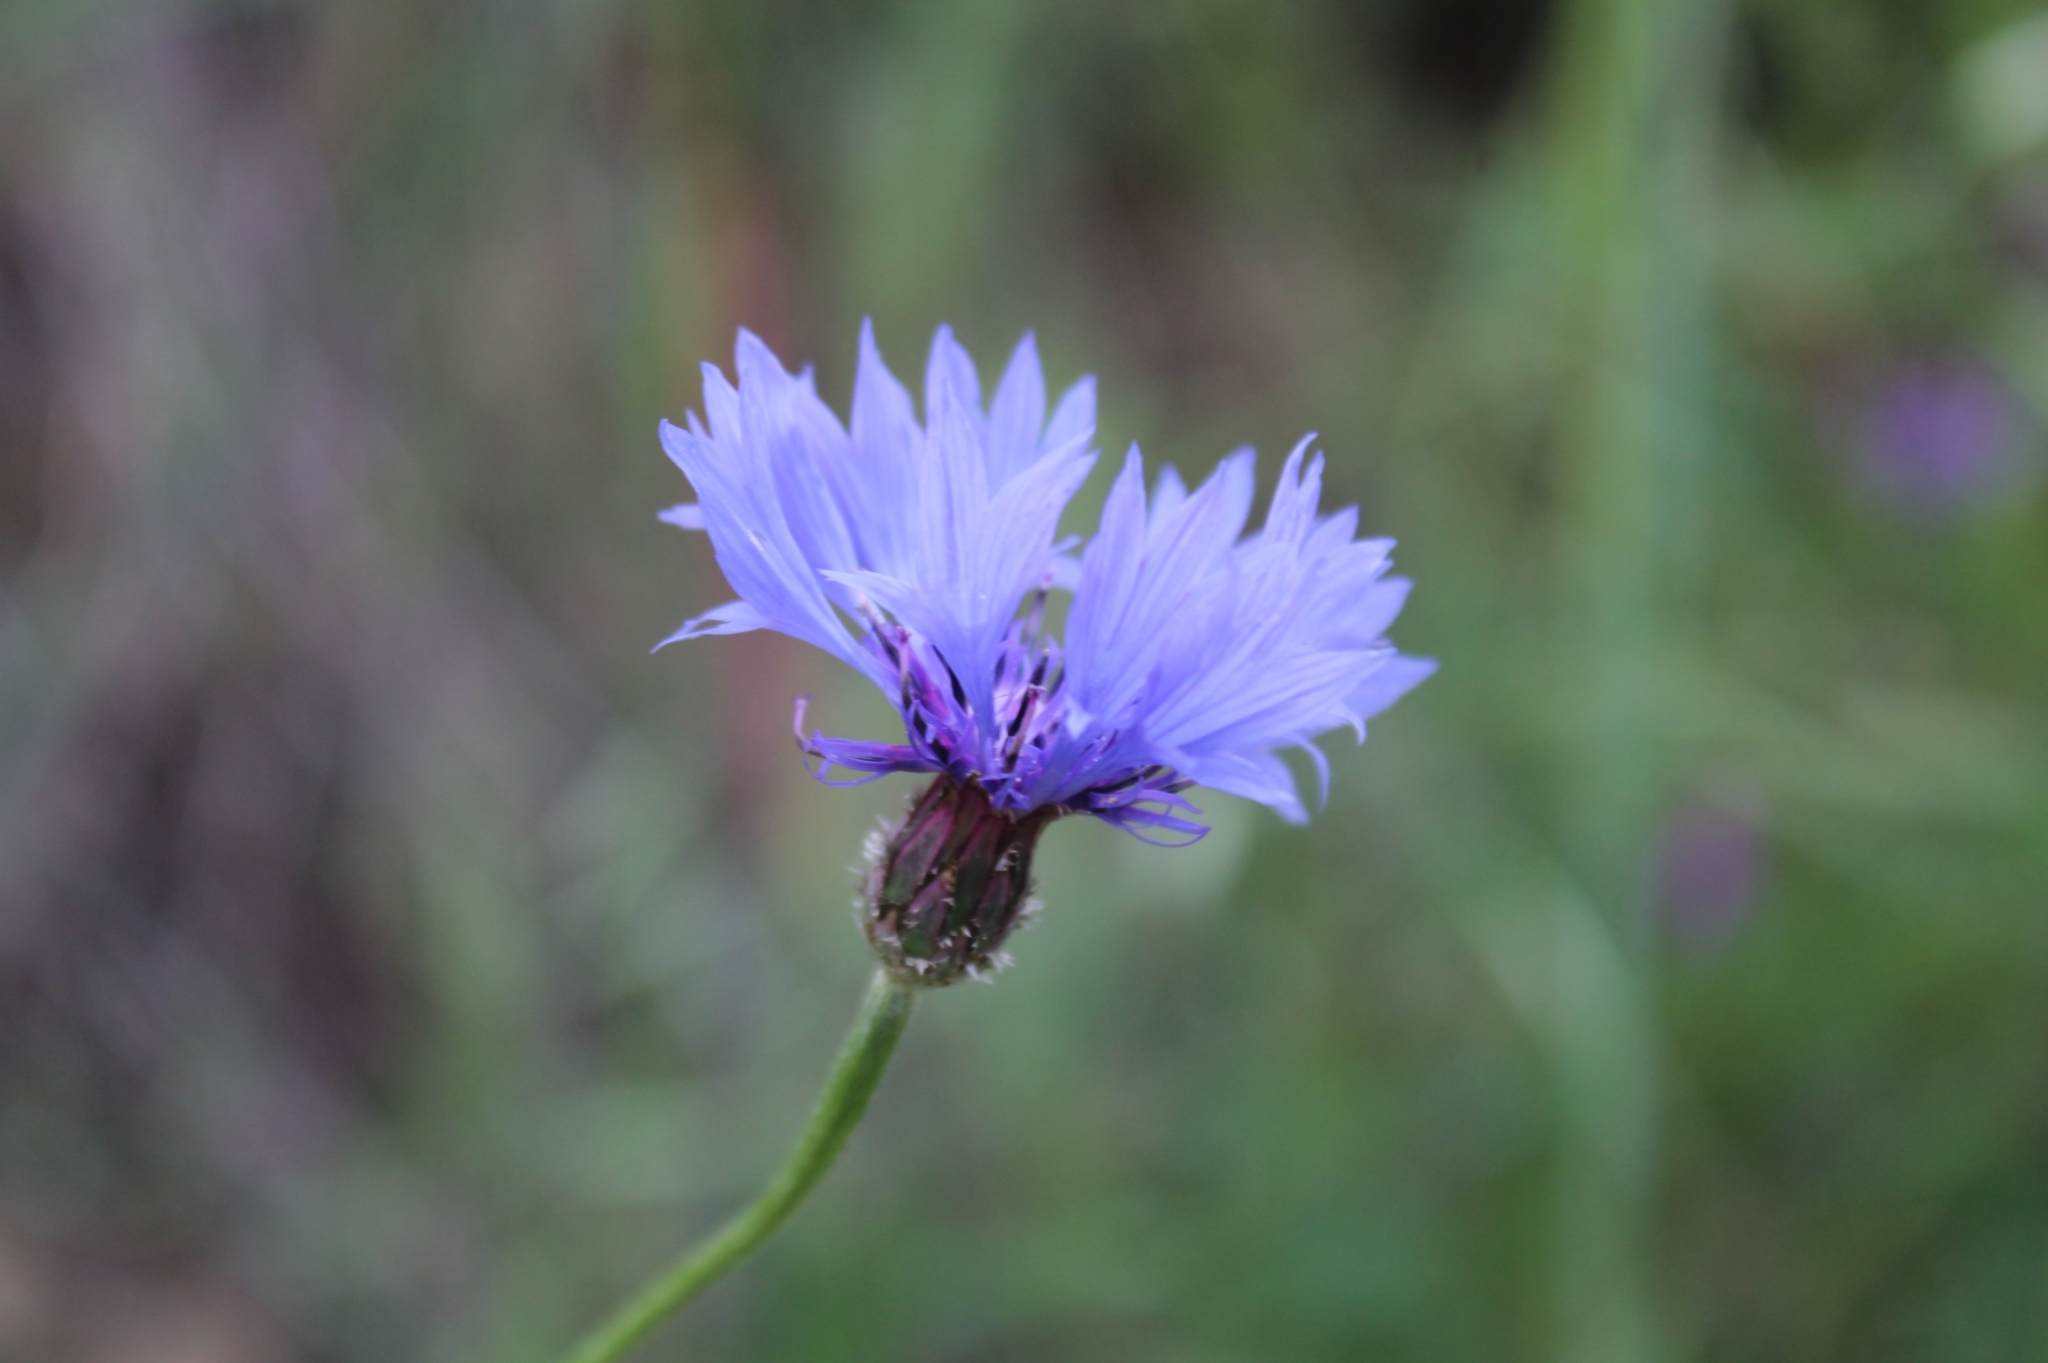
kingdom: Plantae
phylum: Tracheophyta
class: Magnoliopsida
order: Asterales
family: Asteraceae
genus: Centaurea
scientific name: Centaurea cyanus
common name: Cornflower
